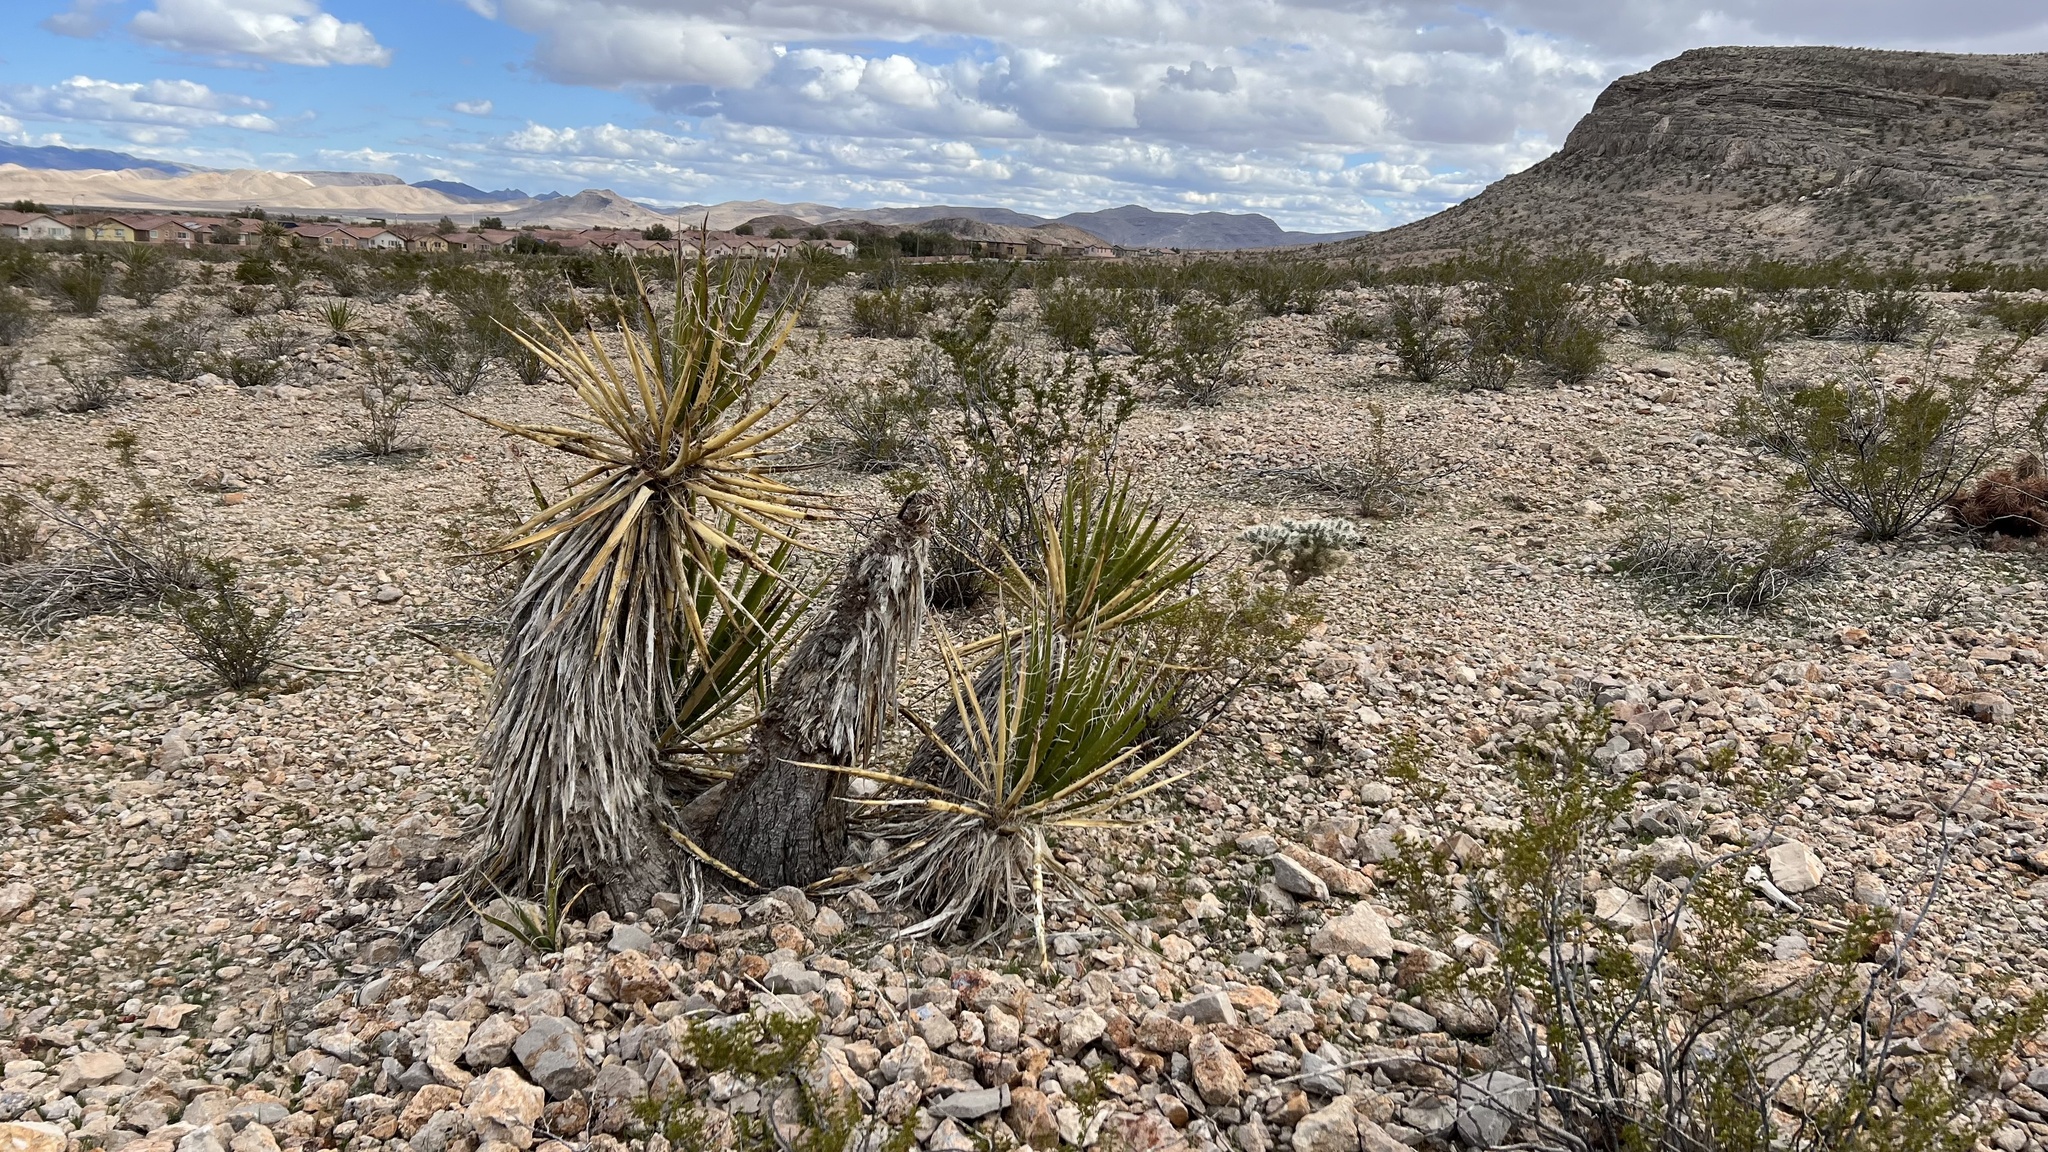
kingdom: Plantae
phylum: Tracheophyta
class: Liliopsida
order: Asparagales
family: Asparagaceae
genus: Yucca
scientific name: Yucca schidigera
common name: Mojave yucca
